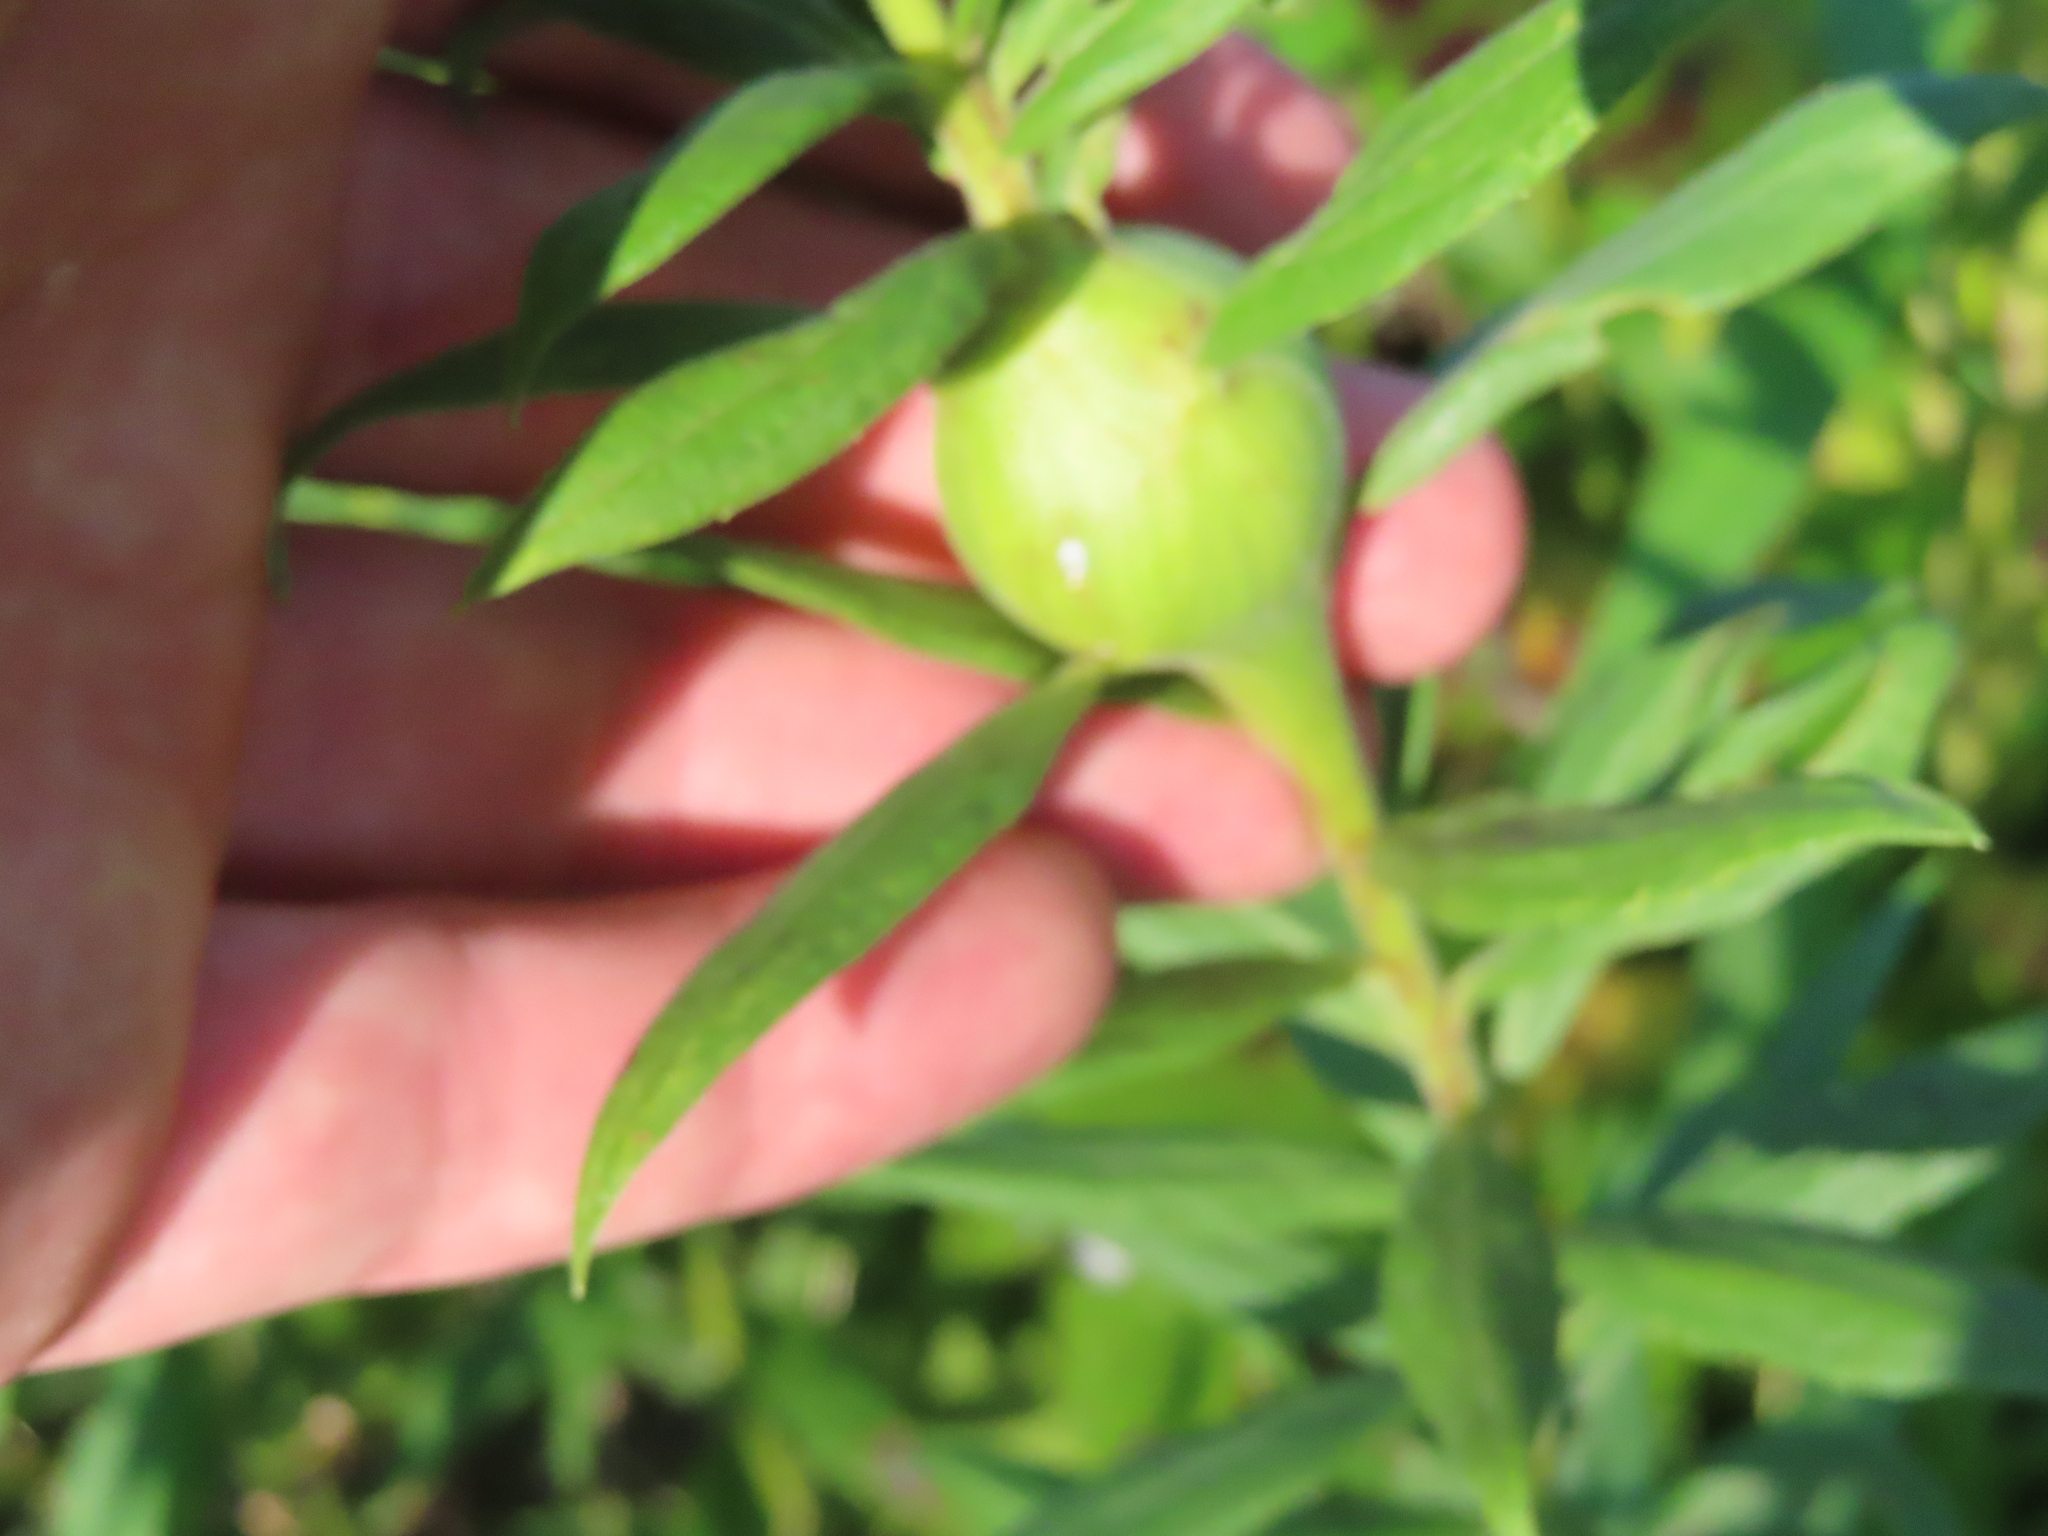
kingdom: Animalia
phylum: Arthropoda
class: Insecta
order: Diptera
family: Tephritidae
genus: Eurosta
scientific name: Eurosta solidaginis
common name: Goldenrod gall fly
